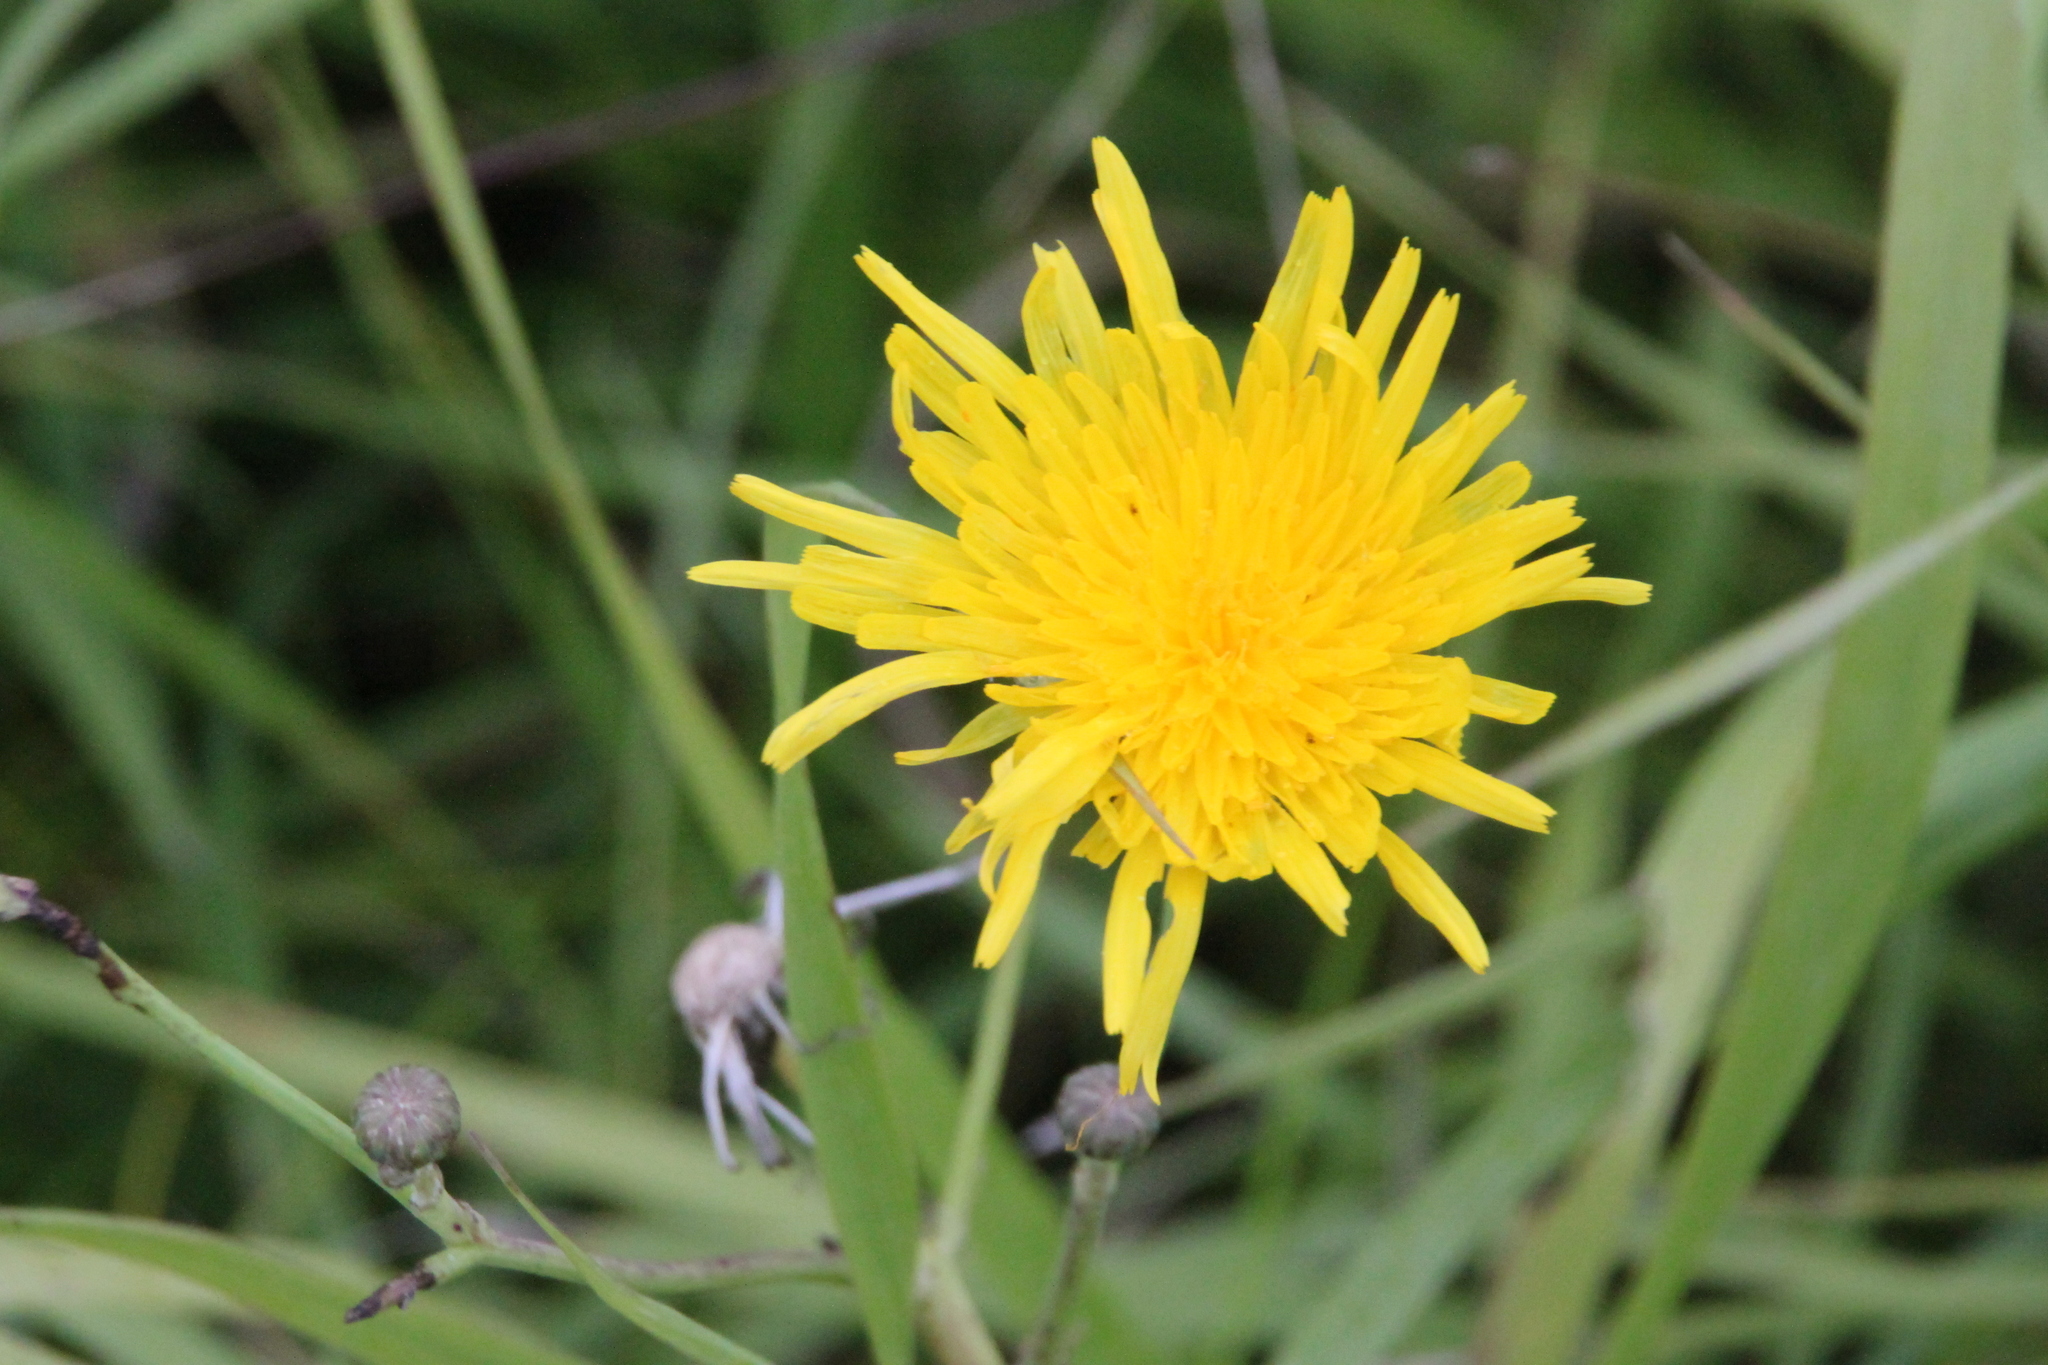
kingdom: Plantae
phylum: Tracheophyta
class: Magnoliopsida
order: Asterales
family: Asteraceae
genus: Sonchus
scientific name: Sonchus arvensis
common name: Perennial sow-thistle
